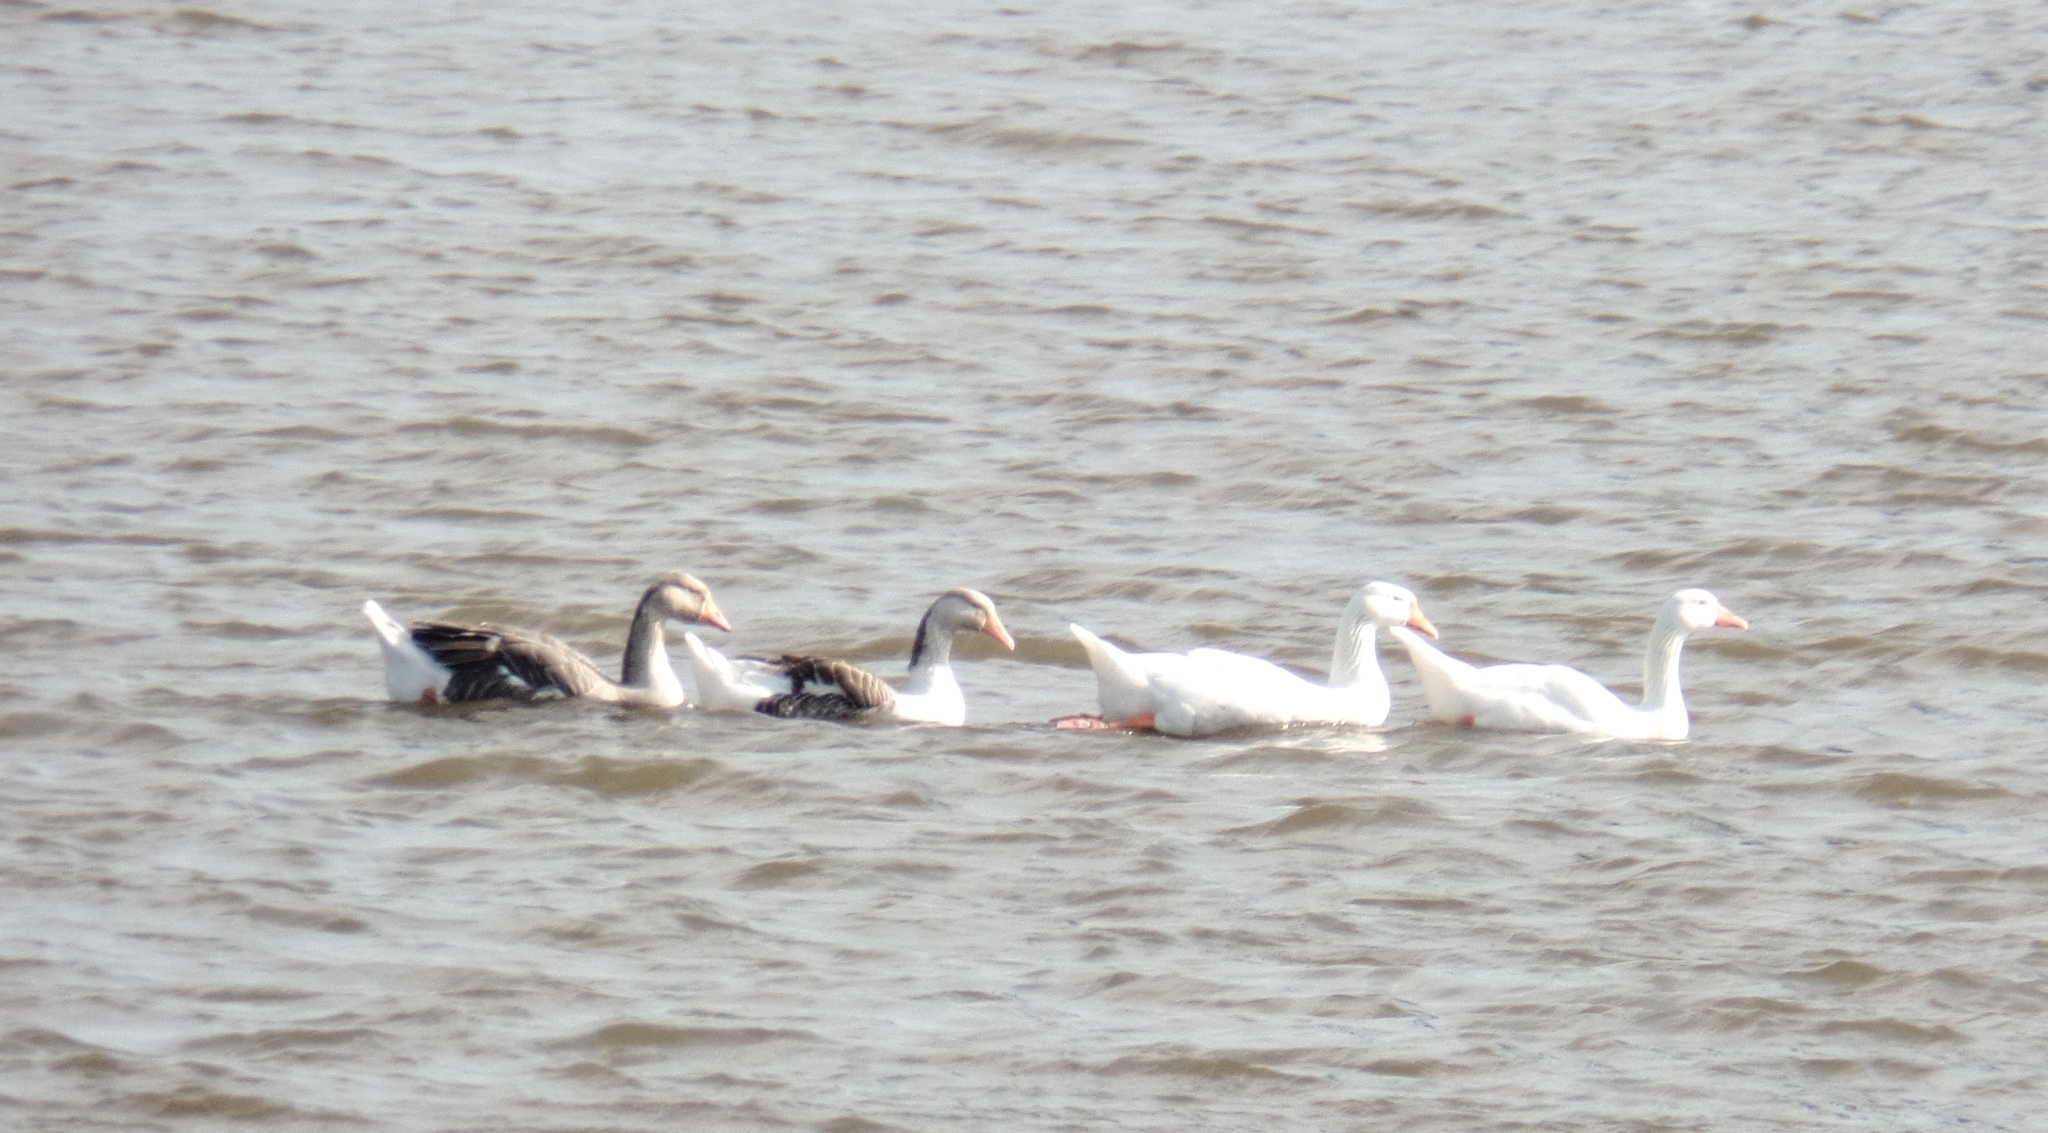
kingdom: Animalia
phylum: Chordata
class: Aves
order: Anseriformes
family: Anatidae
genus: Anser
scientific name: Anser anser
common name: Greylag goose
